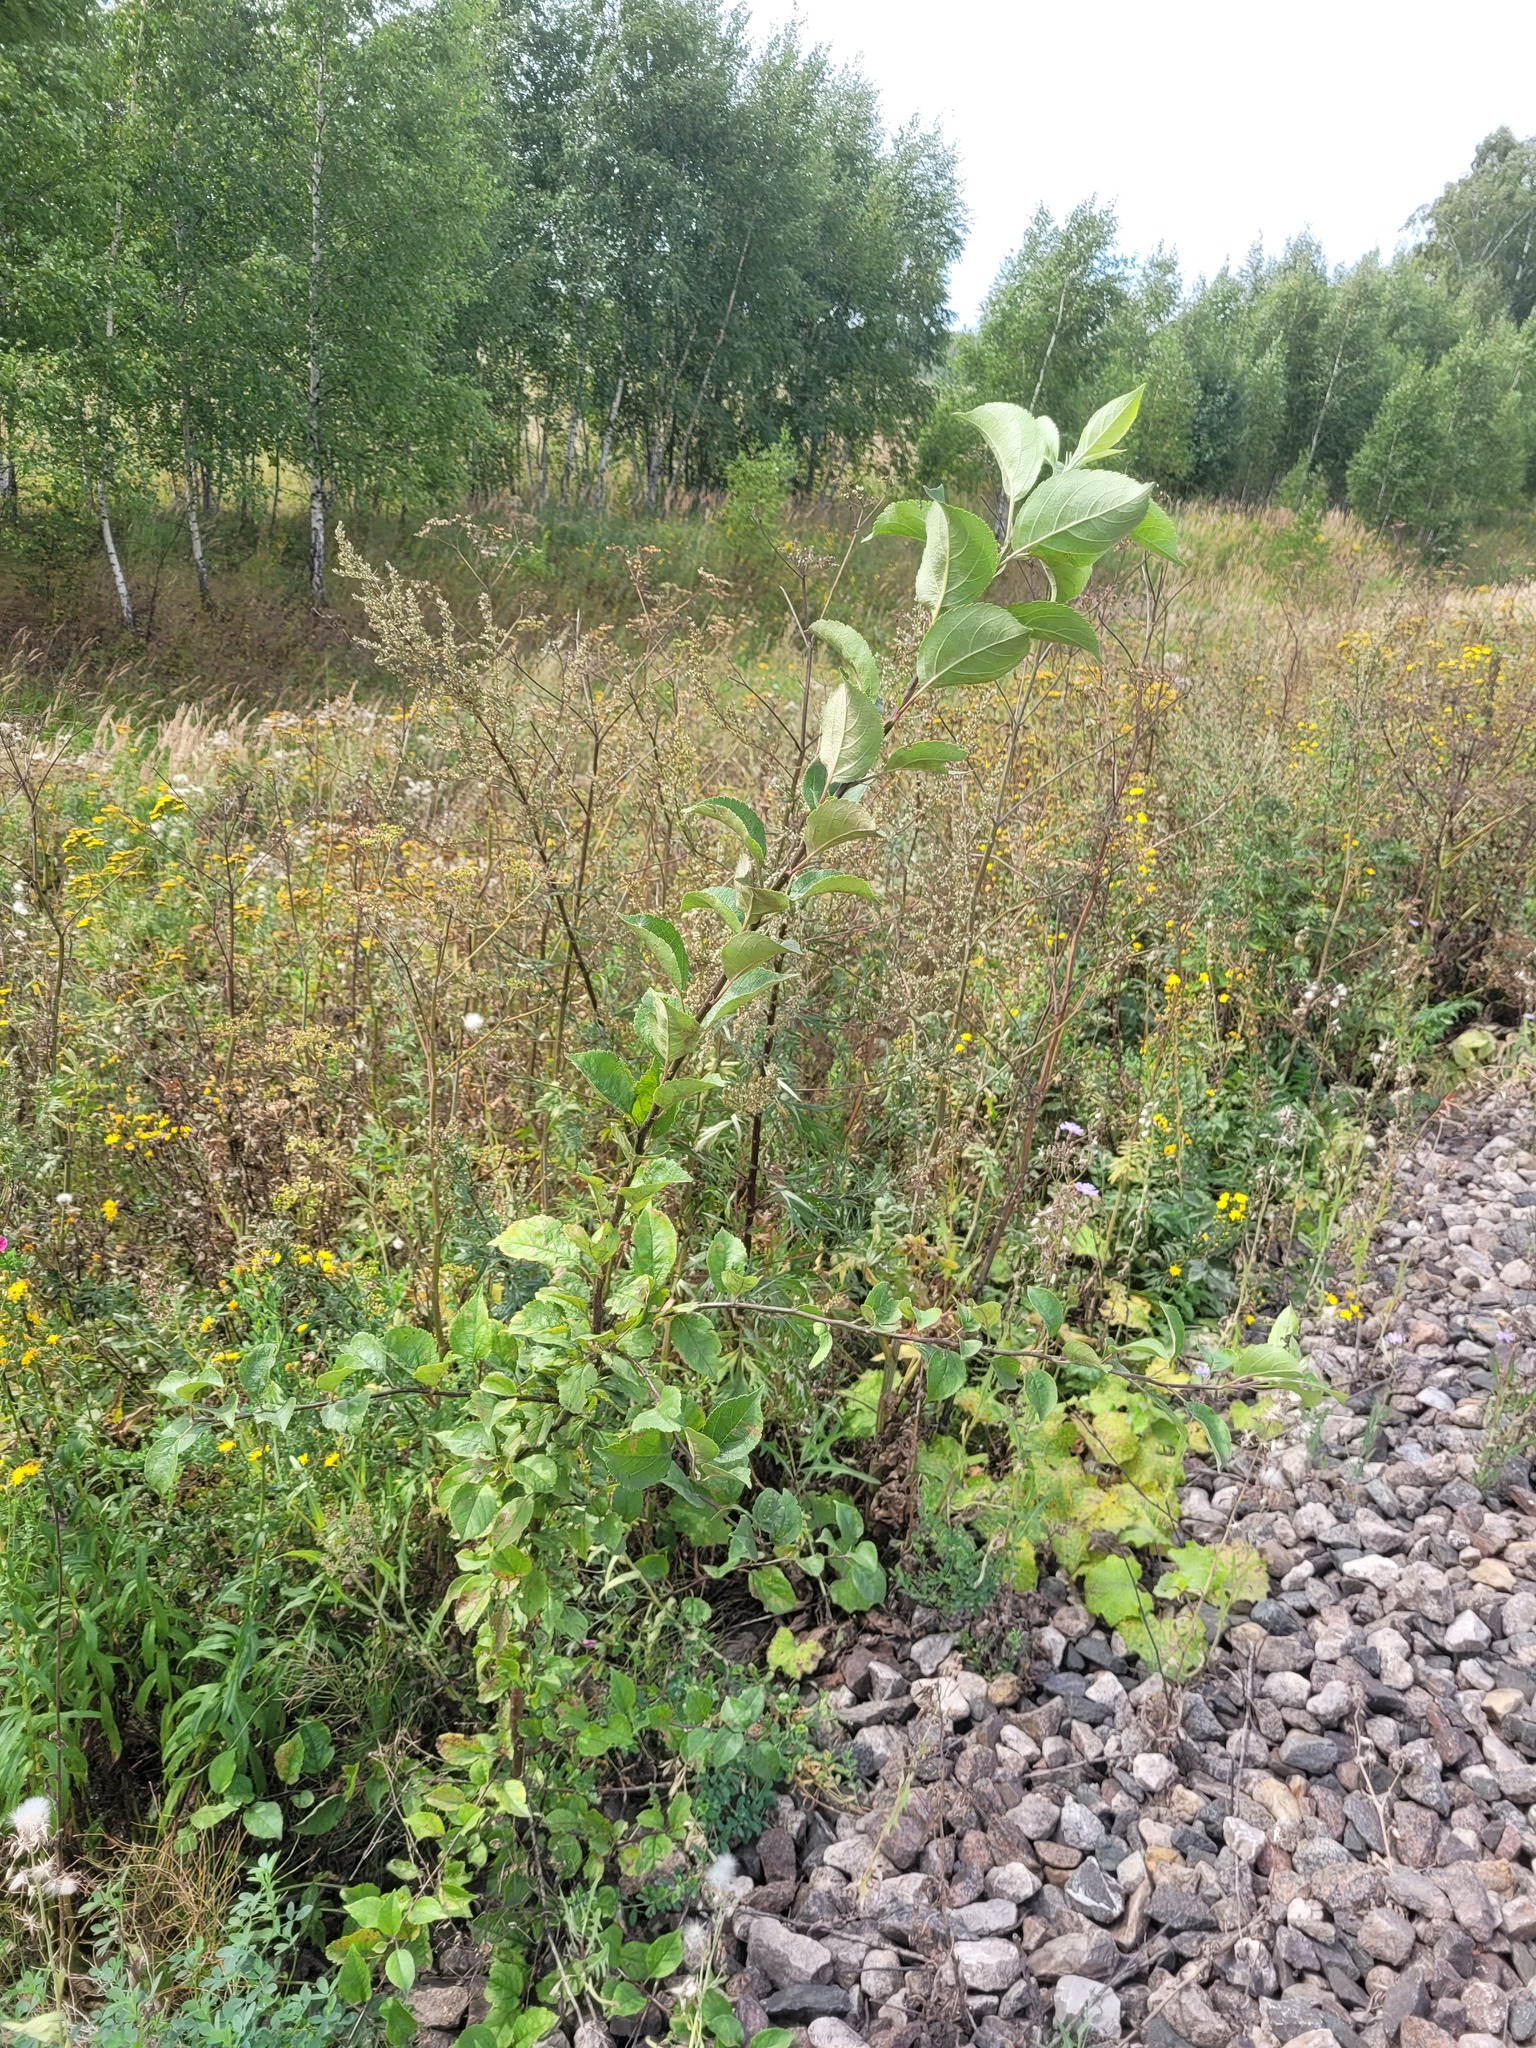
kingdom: Plantae
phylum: Tracheophyta
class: Magnoliopsida
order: Rosales
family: Rosaceae
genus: Malus
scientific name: Malus domestica
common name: Apple
